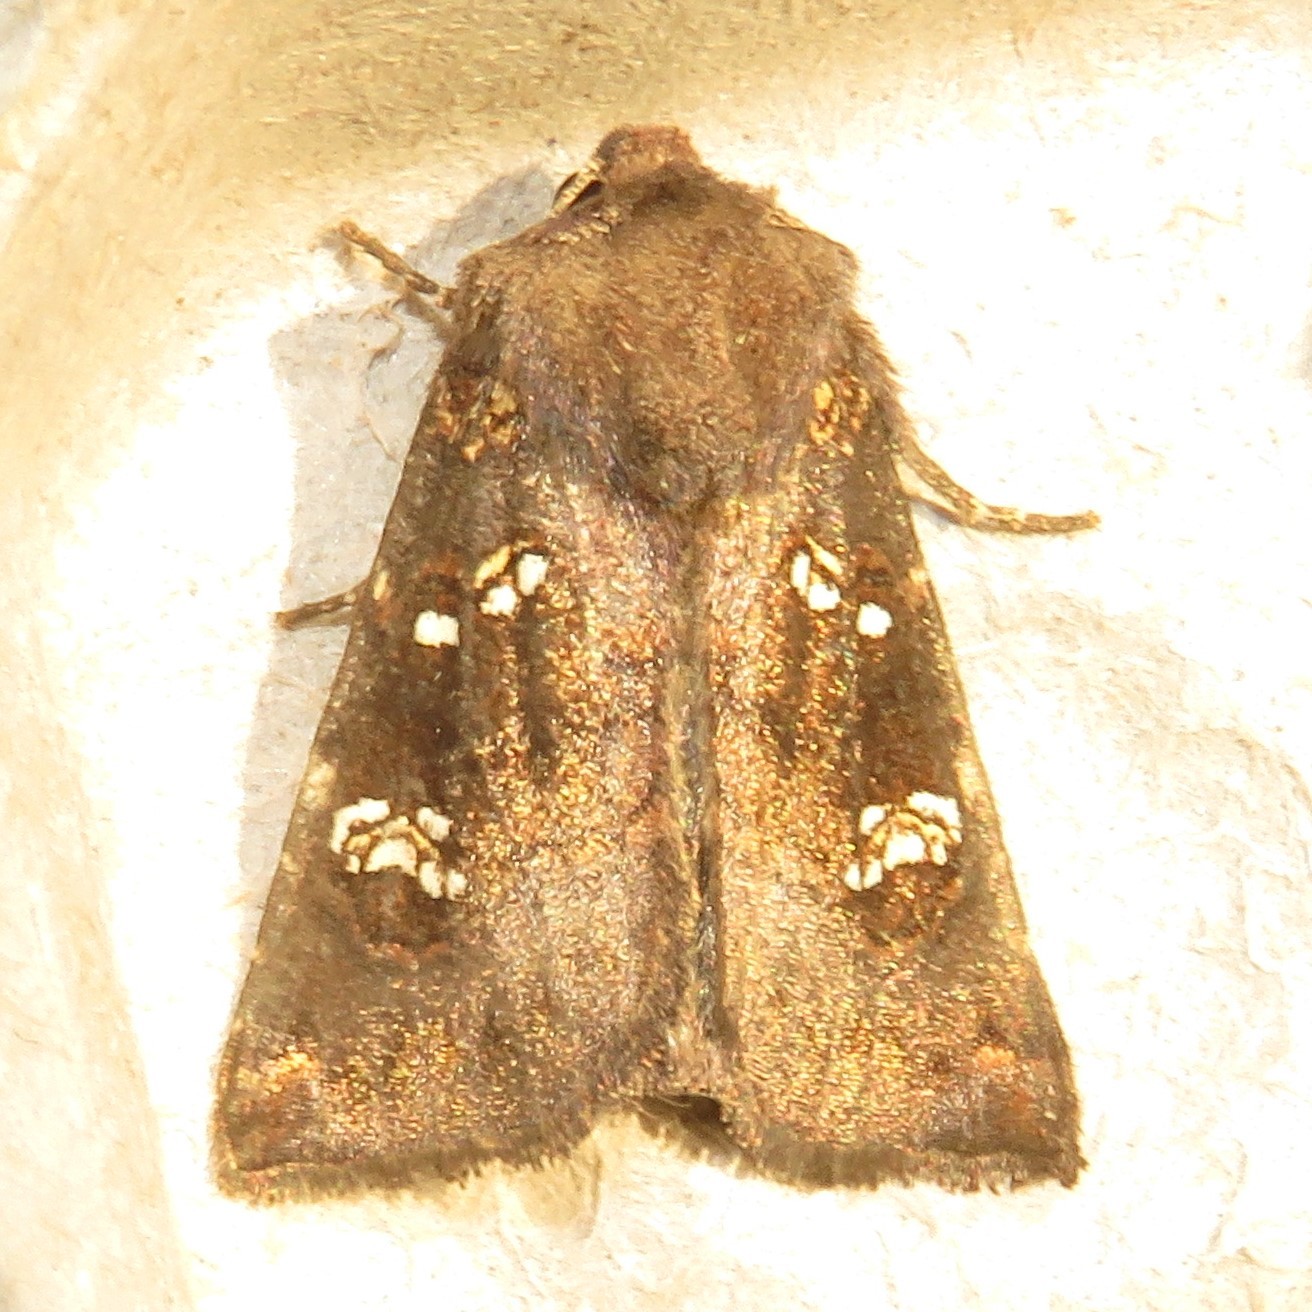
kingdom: Animalia
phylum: Arthropoda
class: Insecta
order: Lepidoptera
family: Noctuidae
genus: Papaipema
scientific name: Papaipema unimoda
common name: Meadow rue borer moth
